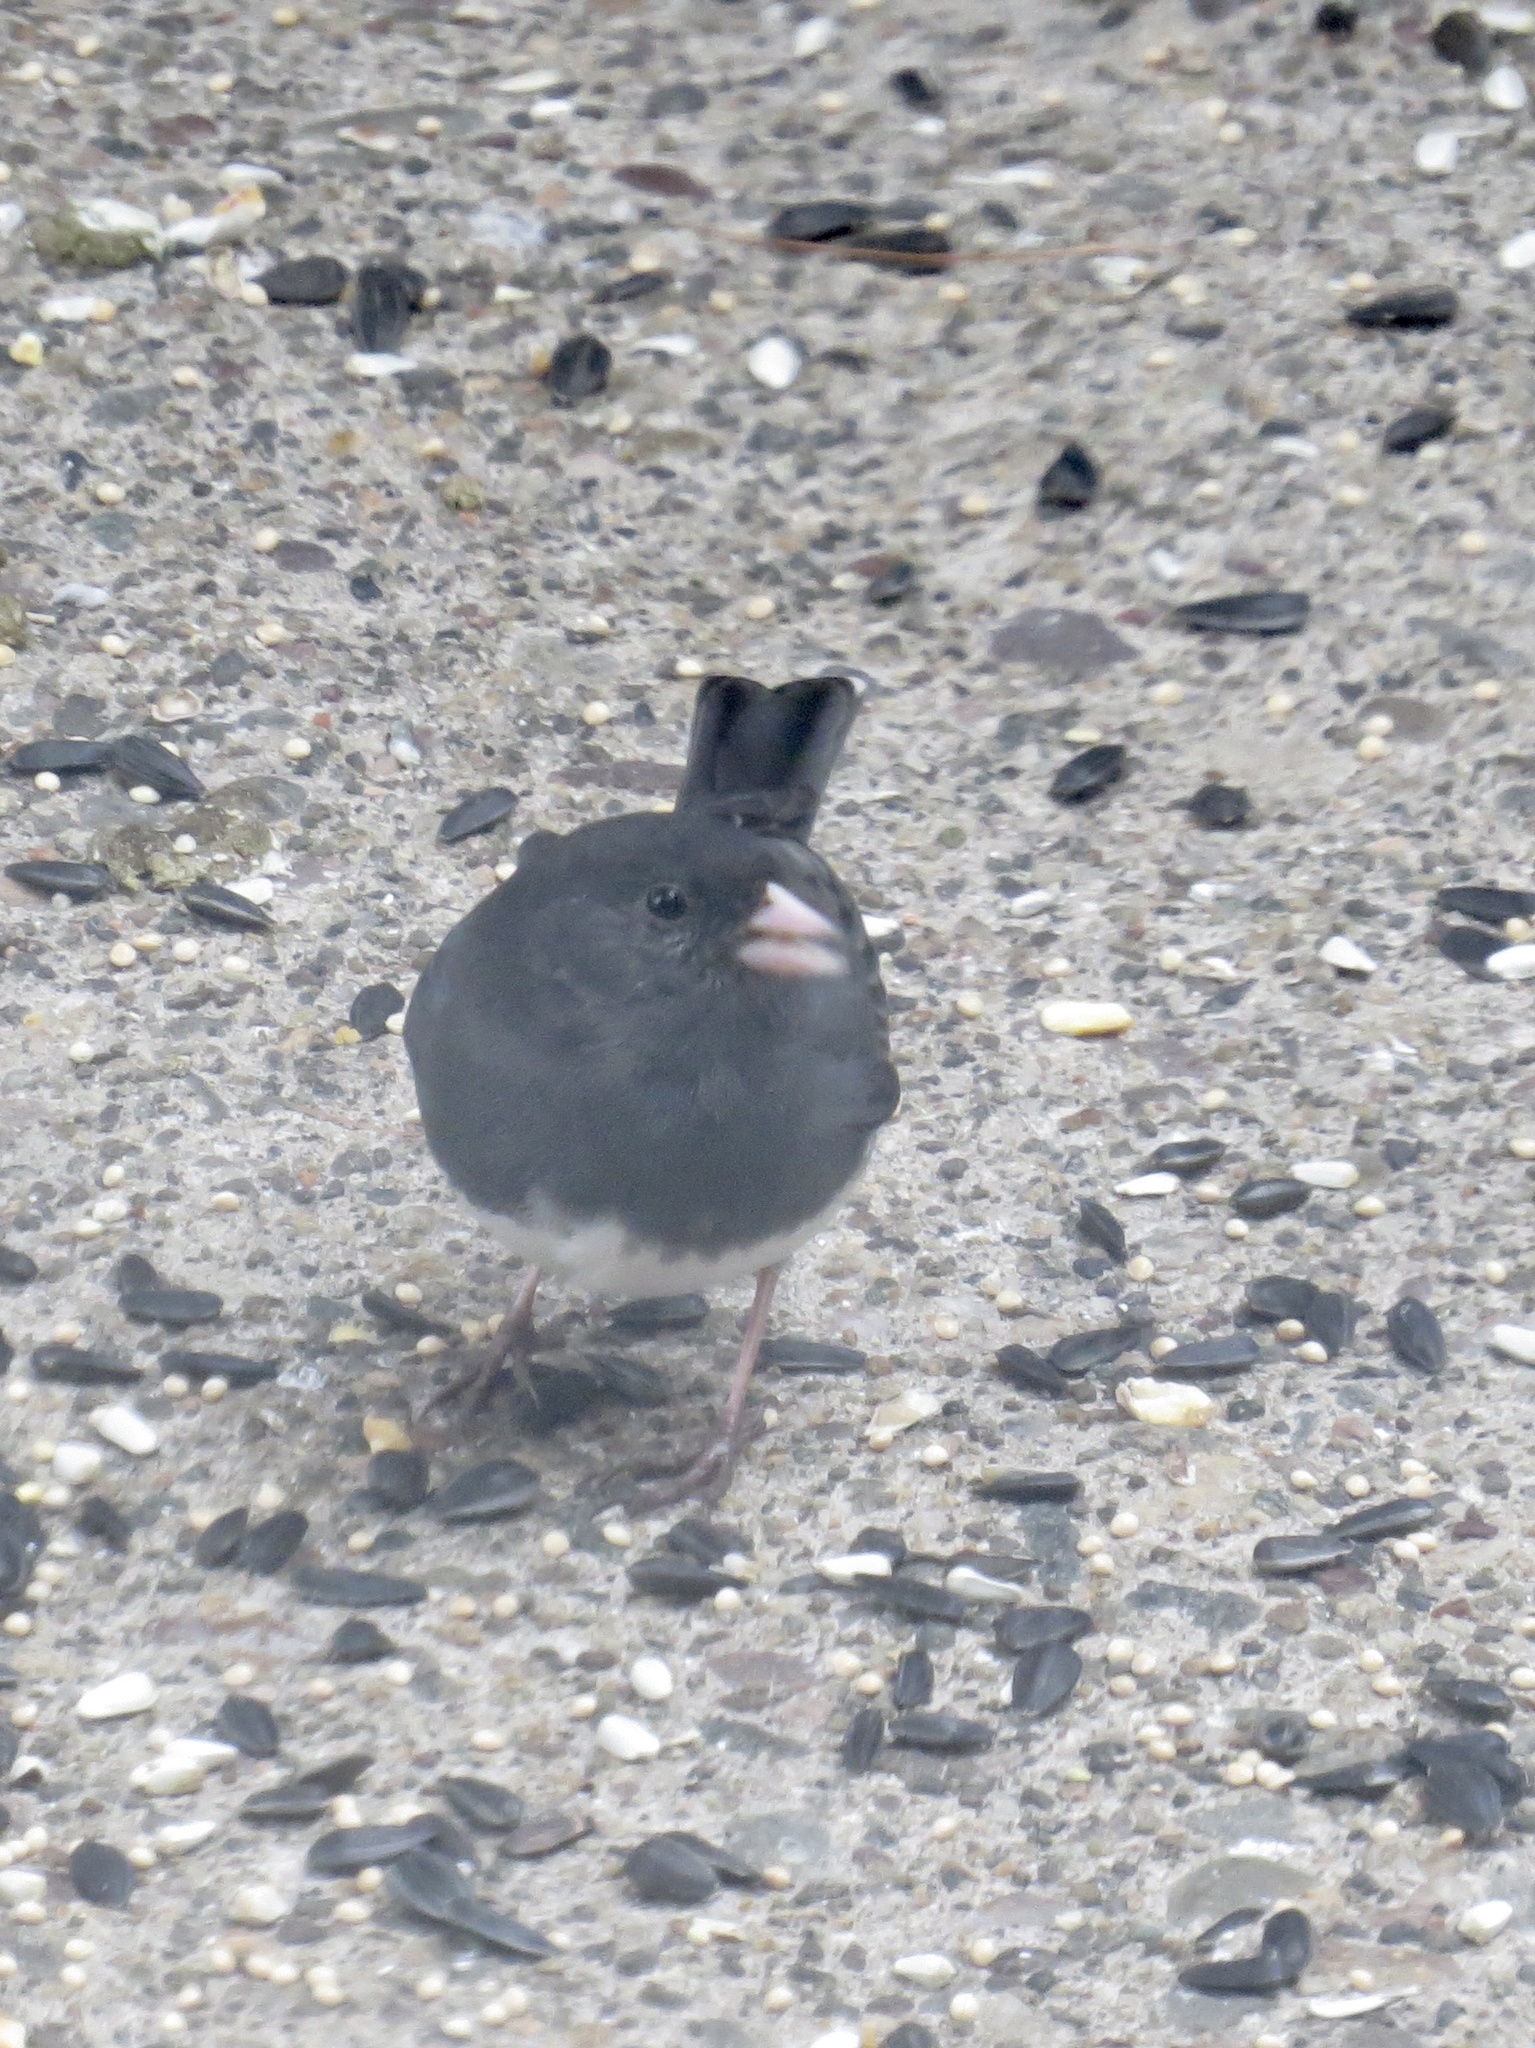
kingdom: Animalia
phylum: Chordata
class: Aves
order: Passeriformes
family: Passerellidae
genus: Junco
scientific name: Junco hyemalis
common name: Dark-eyed junco
